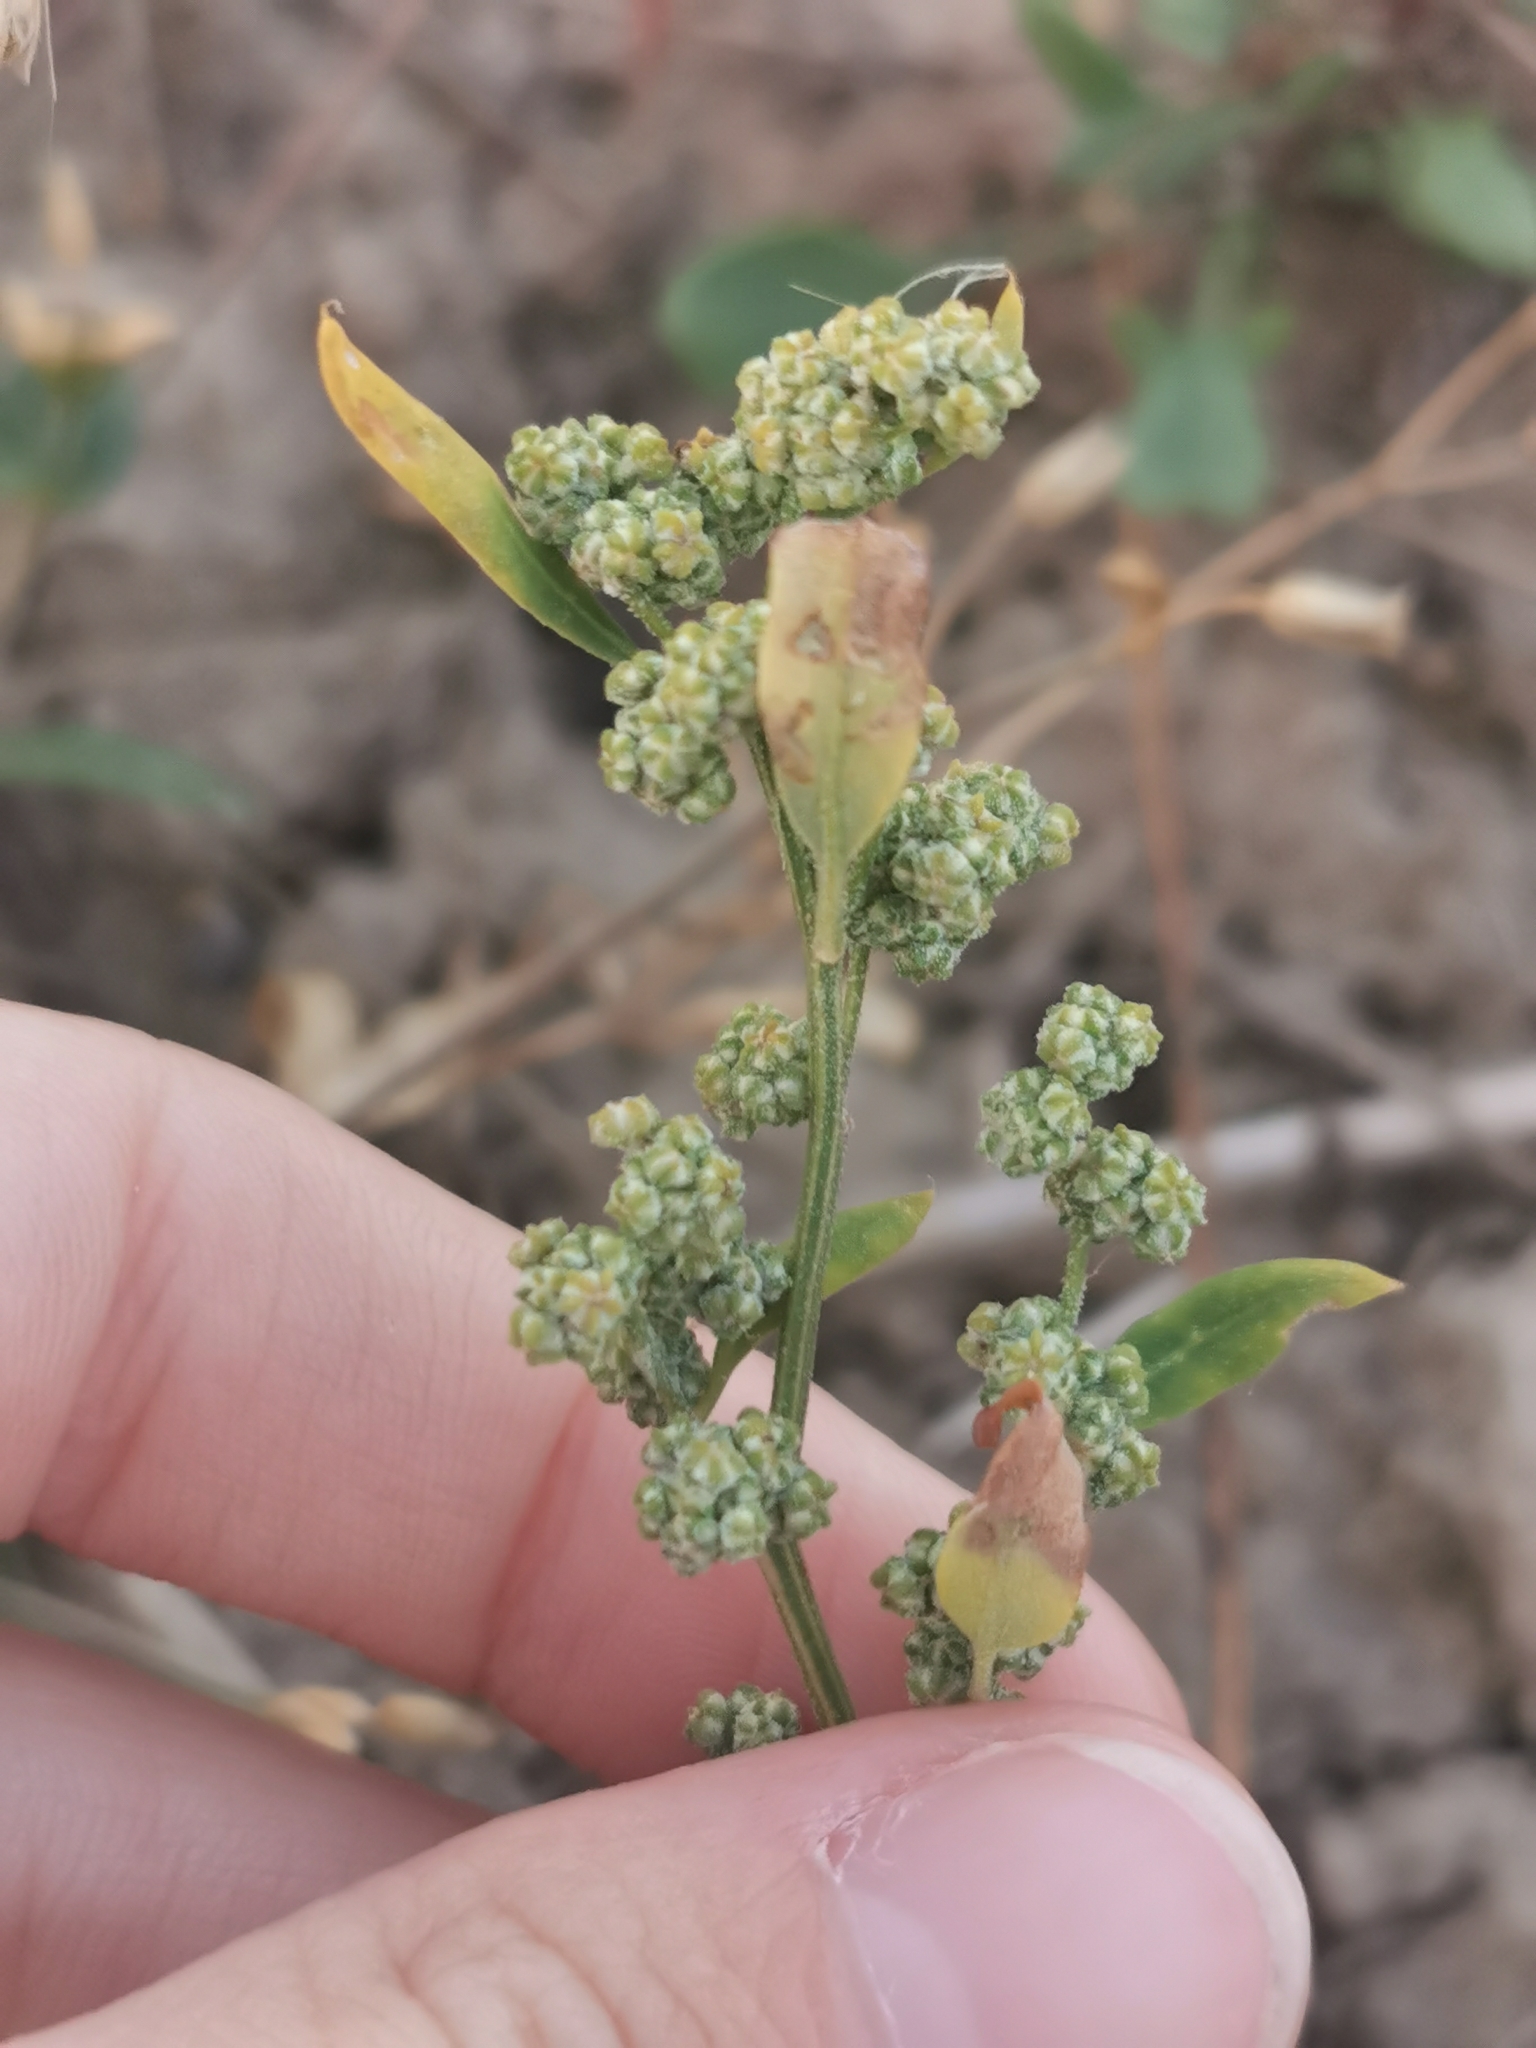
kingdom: Plantae
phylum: Tracheophyta
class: Magnoliopsida
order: Caryophyllales
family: Amaranthaceae
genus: Chenopodium
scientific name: Chenopodium album
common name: Fat-hen
